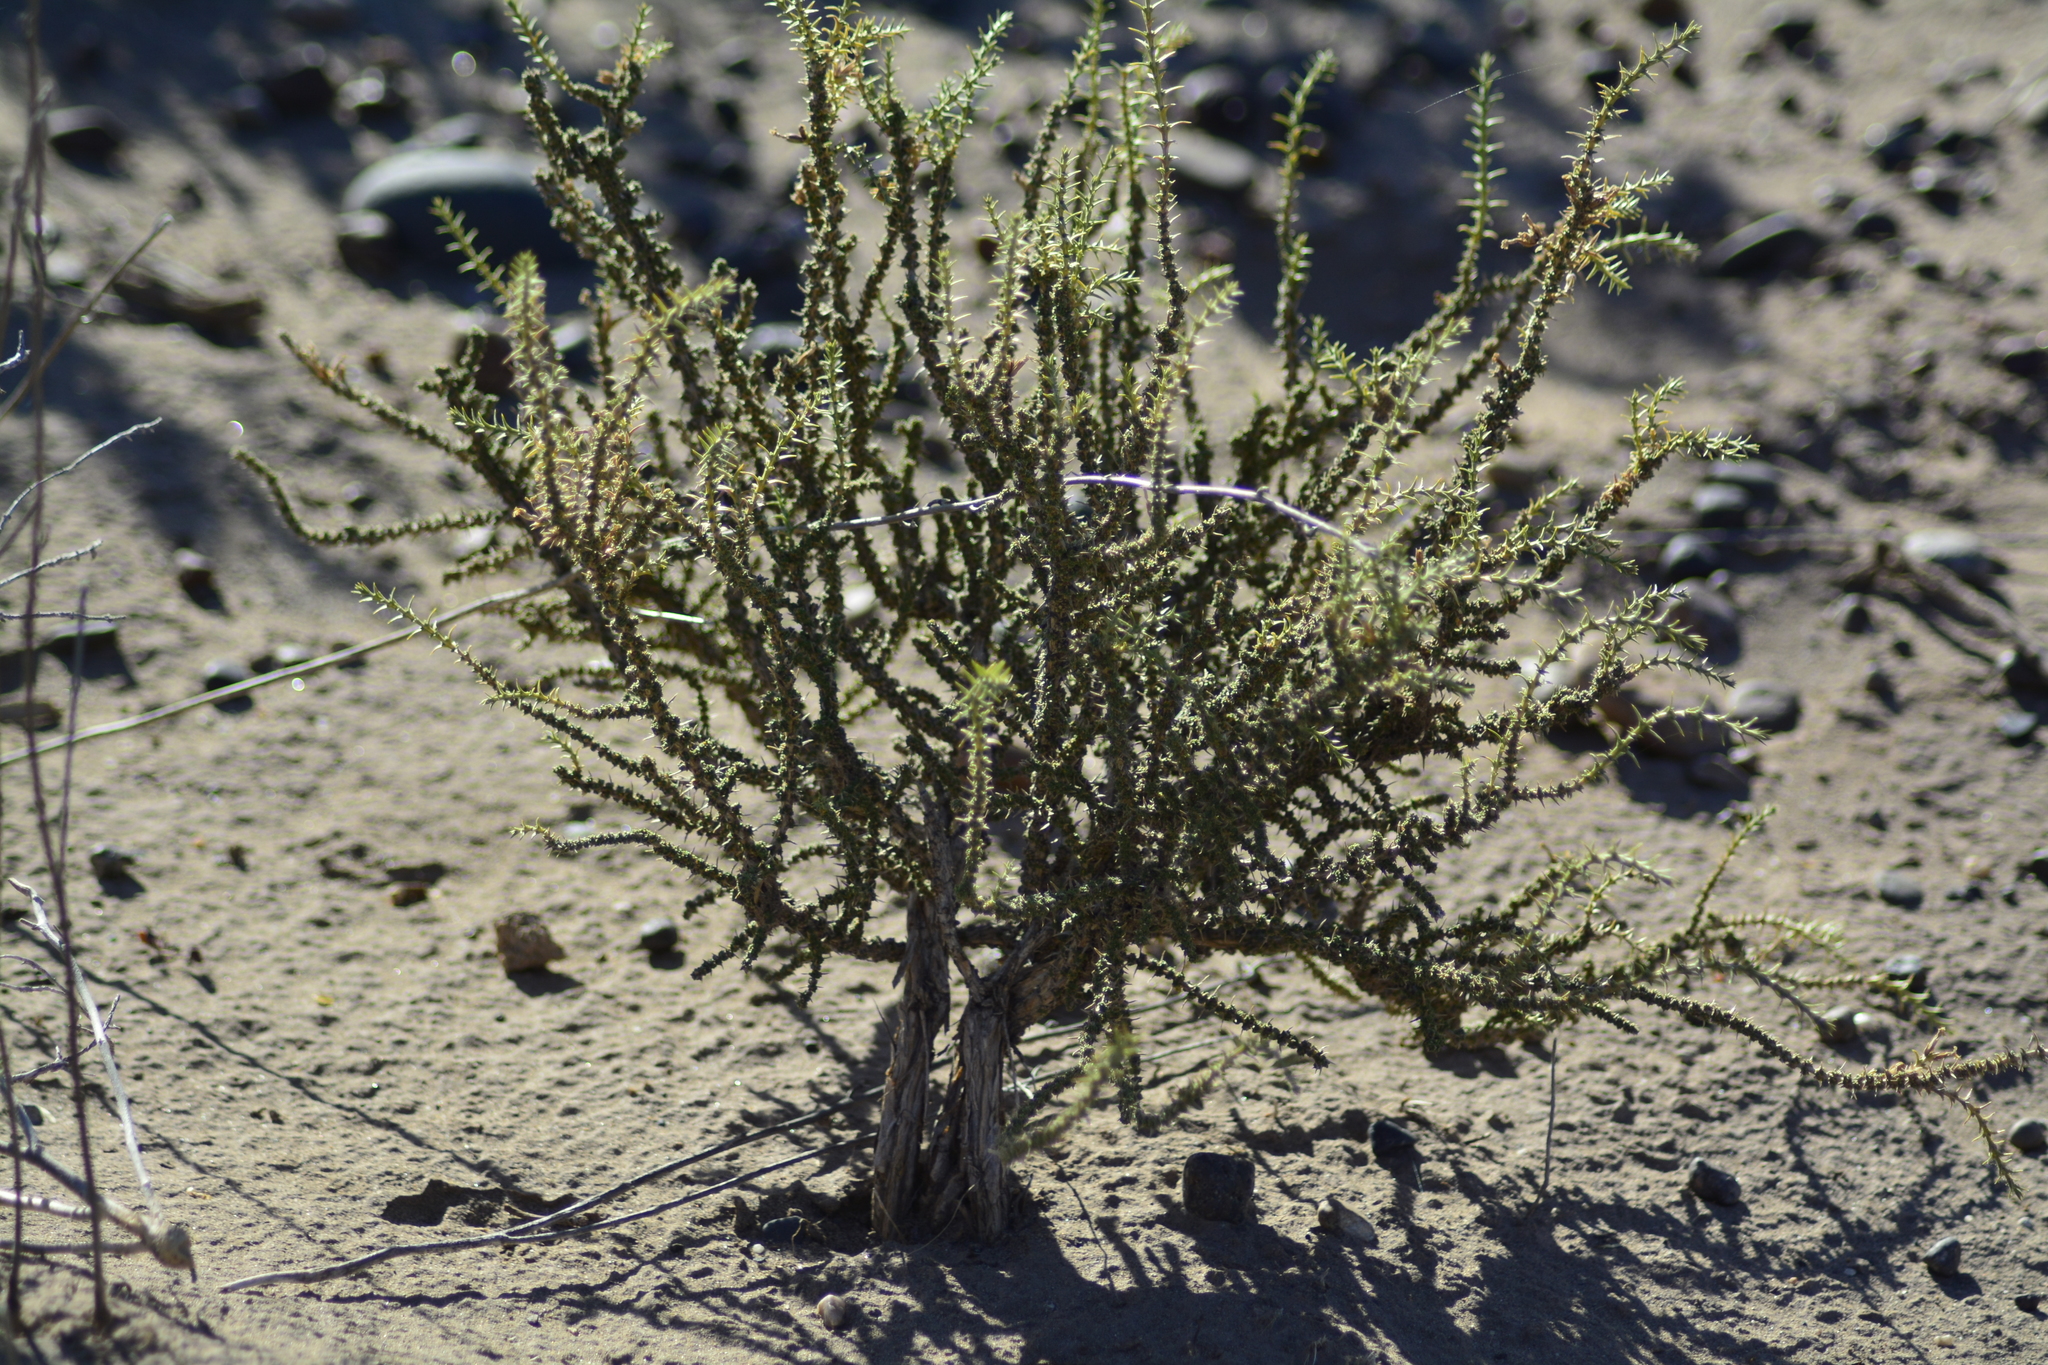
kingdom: Plantae
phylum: Tracheophyta
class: Magnoliopsida
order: Lamiales
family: Verbenaceae
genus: Junellia
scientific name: Junellia seriphioides
